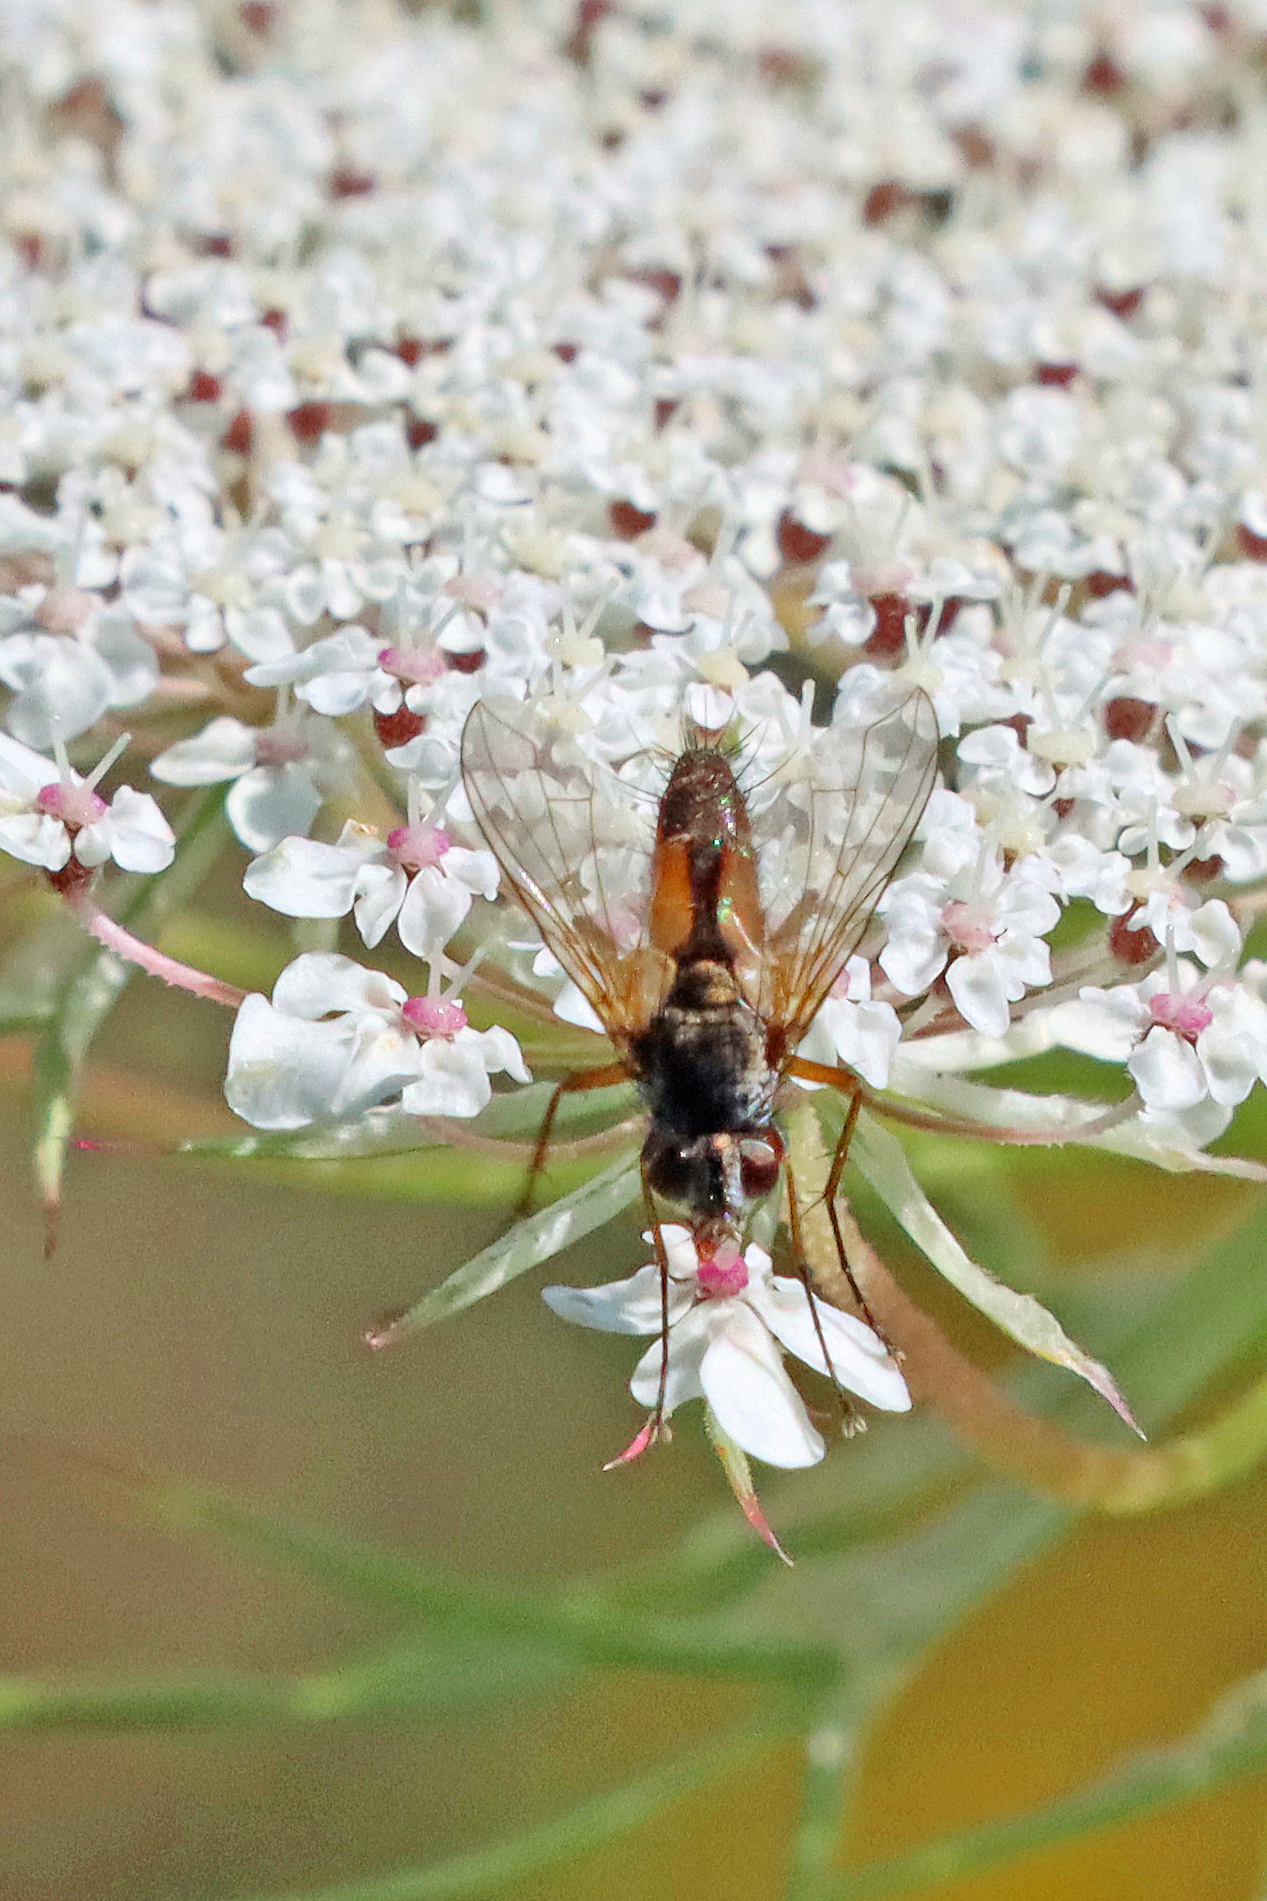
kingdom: Animalia
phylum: Arthropoda
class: Insecta
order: Diptera
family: Tachinidae
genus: Eriothrix
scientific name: Eriothrix rufomaculatus
